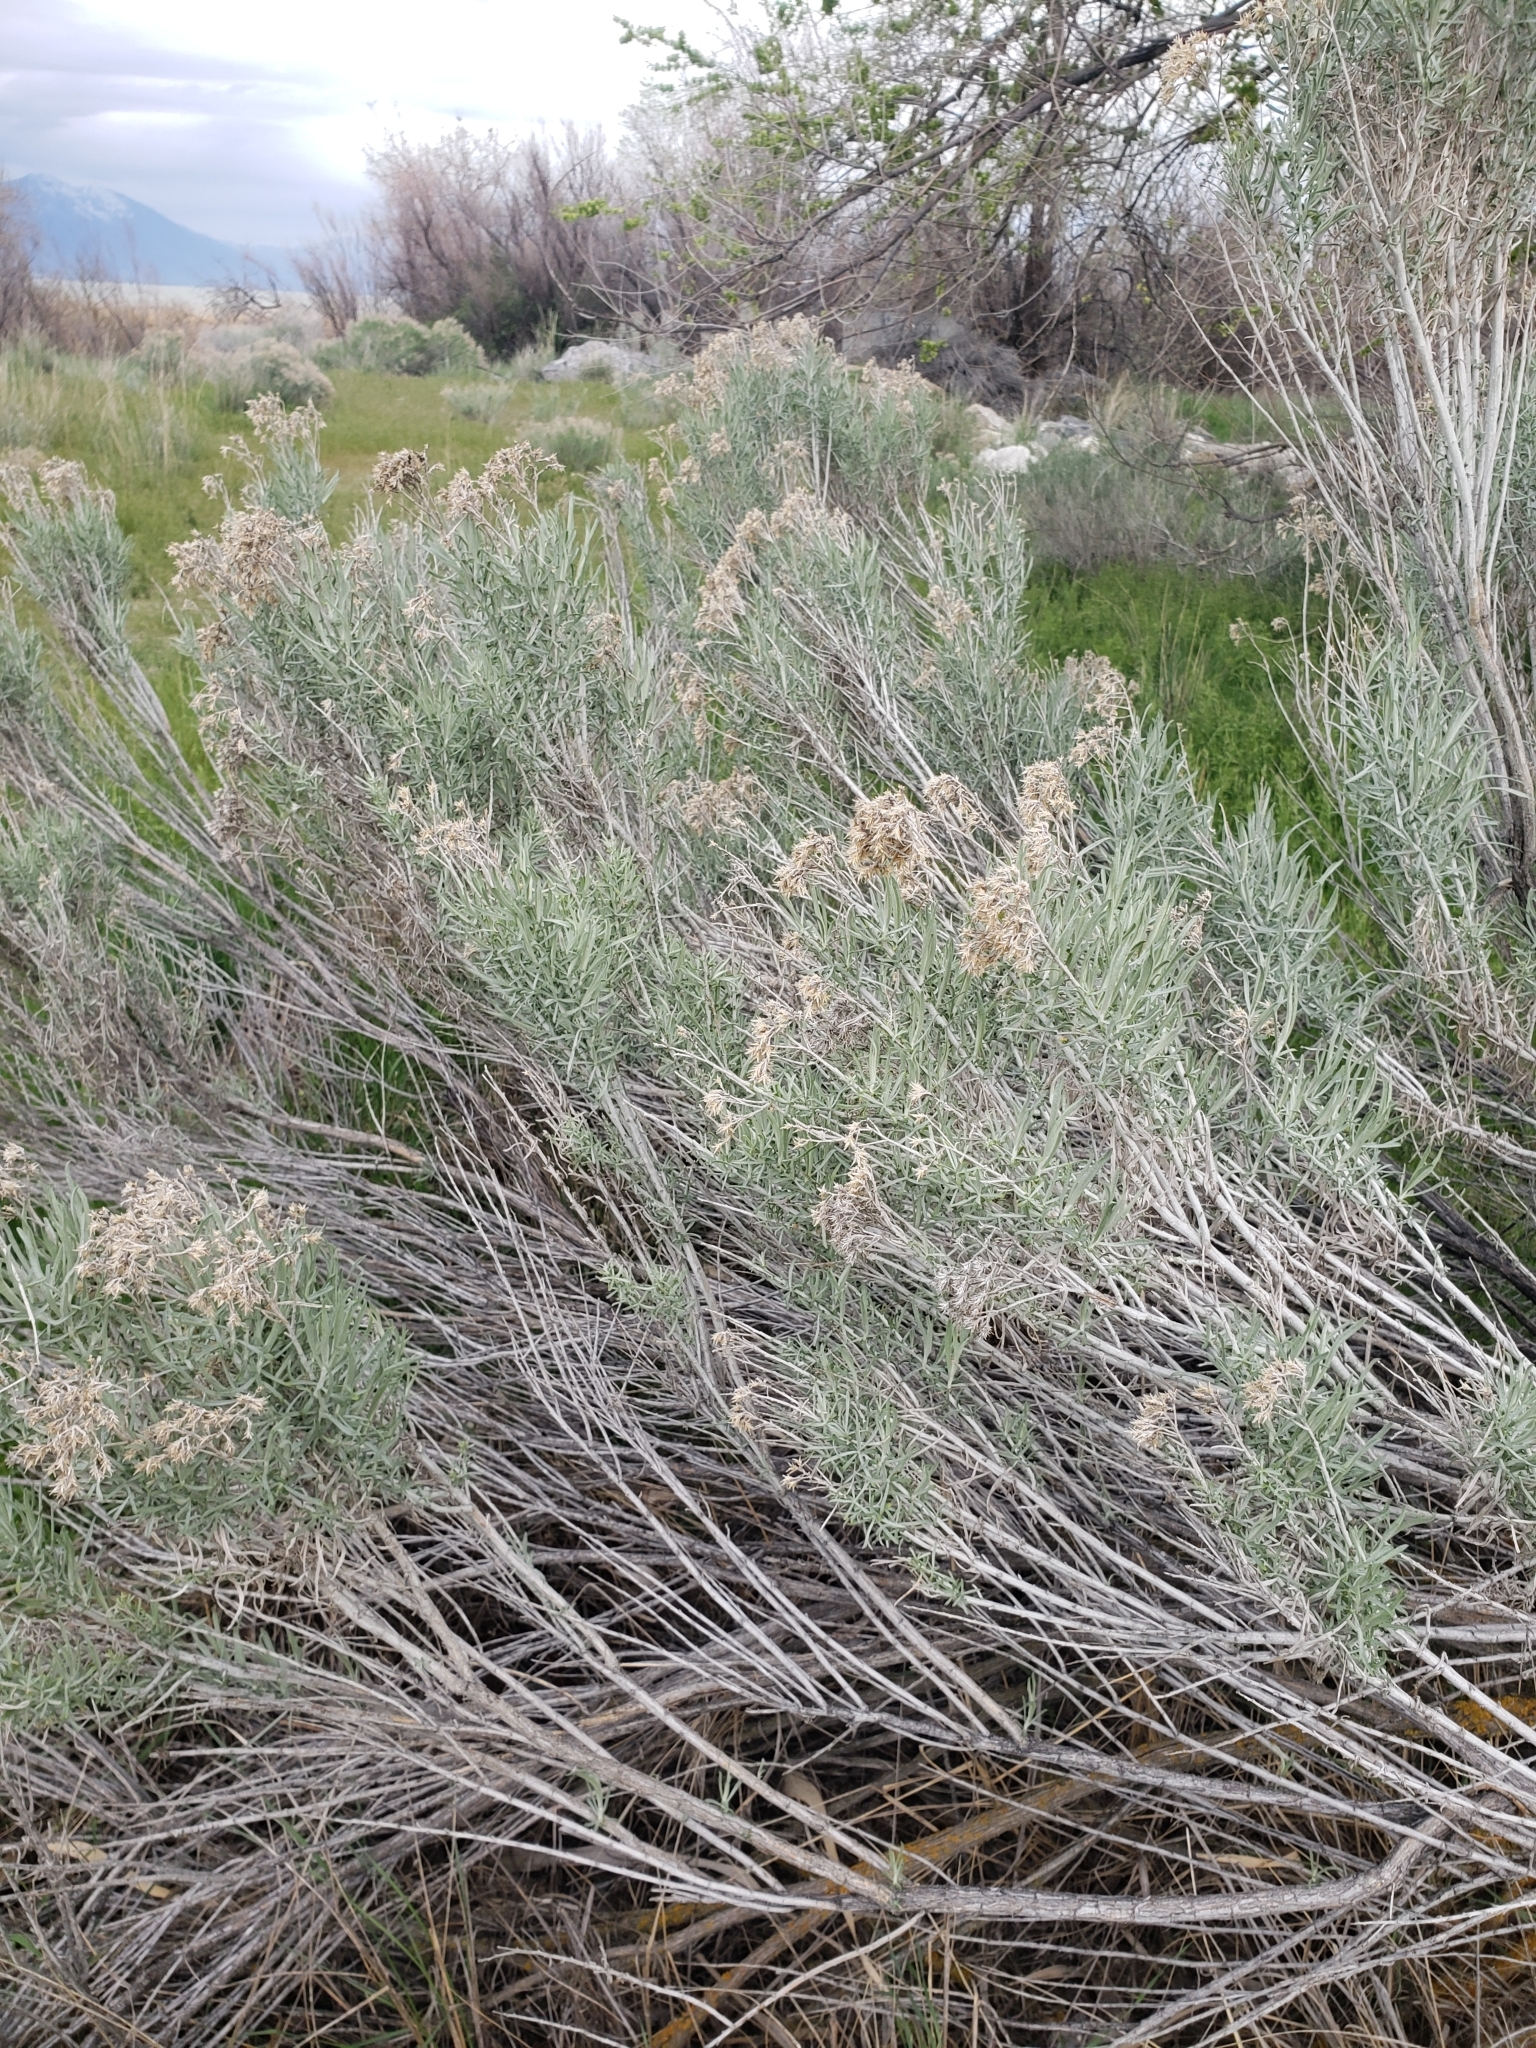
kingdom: Plantae
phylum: Tracheophyta
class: Magnoliopsida
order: Asterales
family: Asteraceae
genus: Ericameria
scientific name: Ericameria nauseosa
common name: Rubber rabbitbrush
